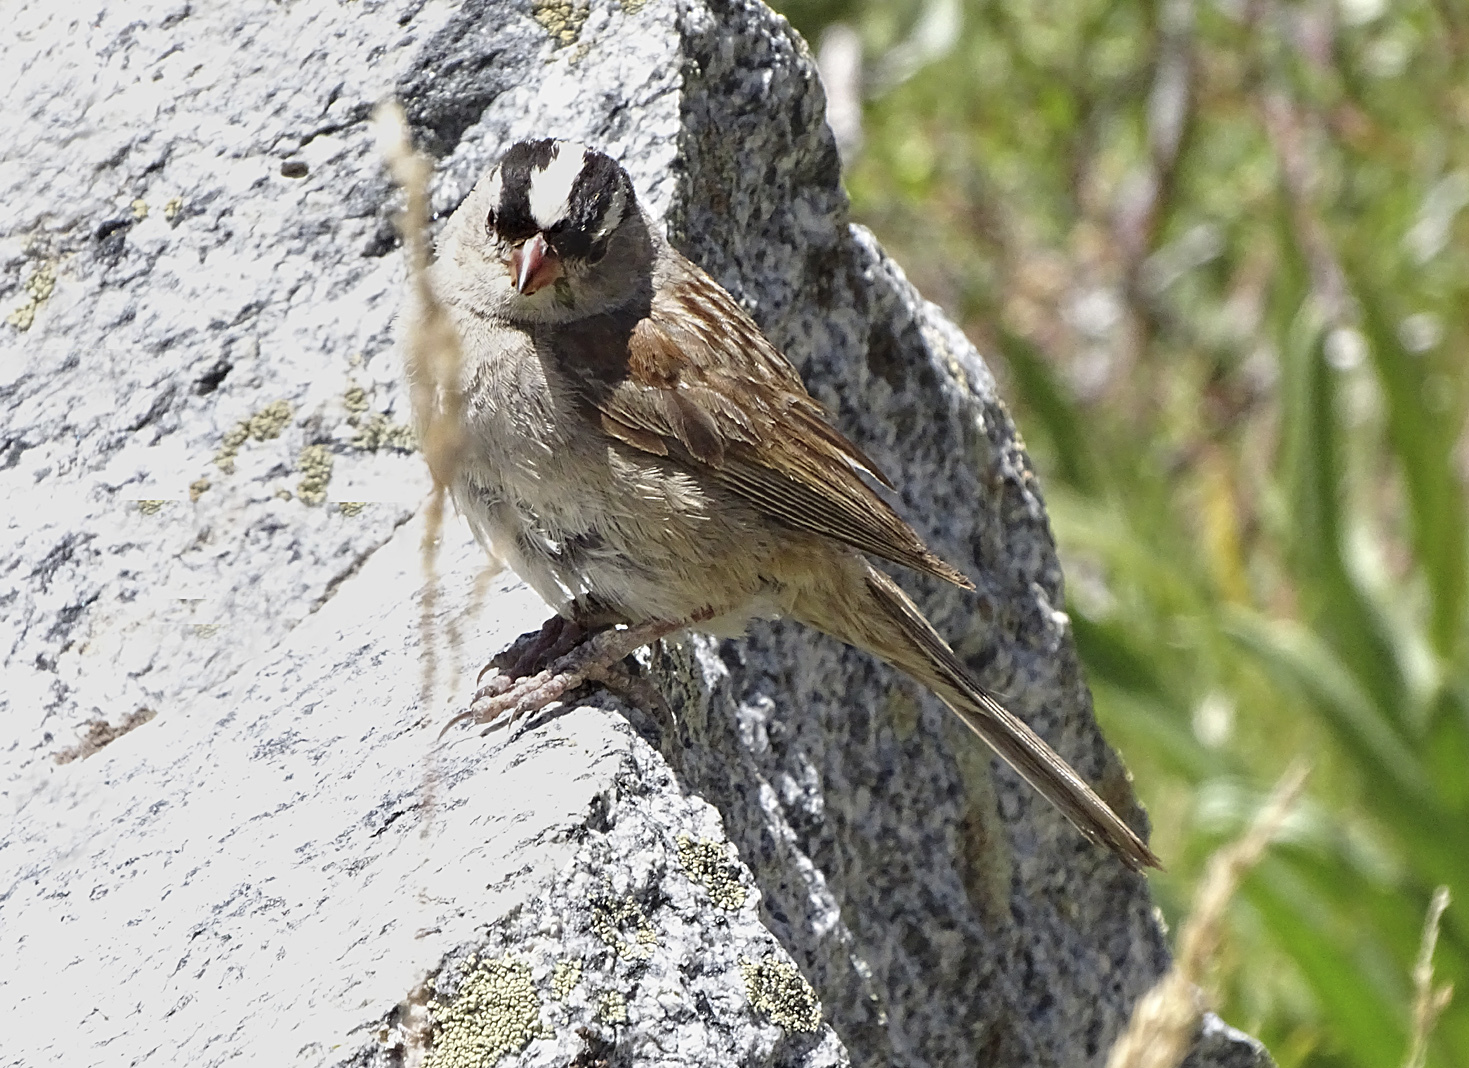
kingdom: Animalia
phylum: Chordata
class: Aves
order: Passeriformes
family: Passerellidae
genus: Zonotrichia
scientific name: Zonotrichia leucophrys
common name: White-crowned sparrow
